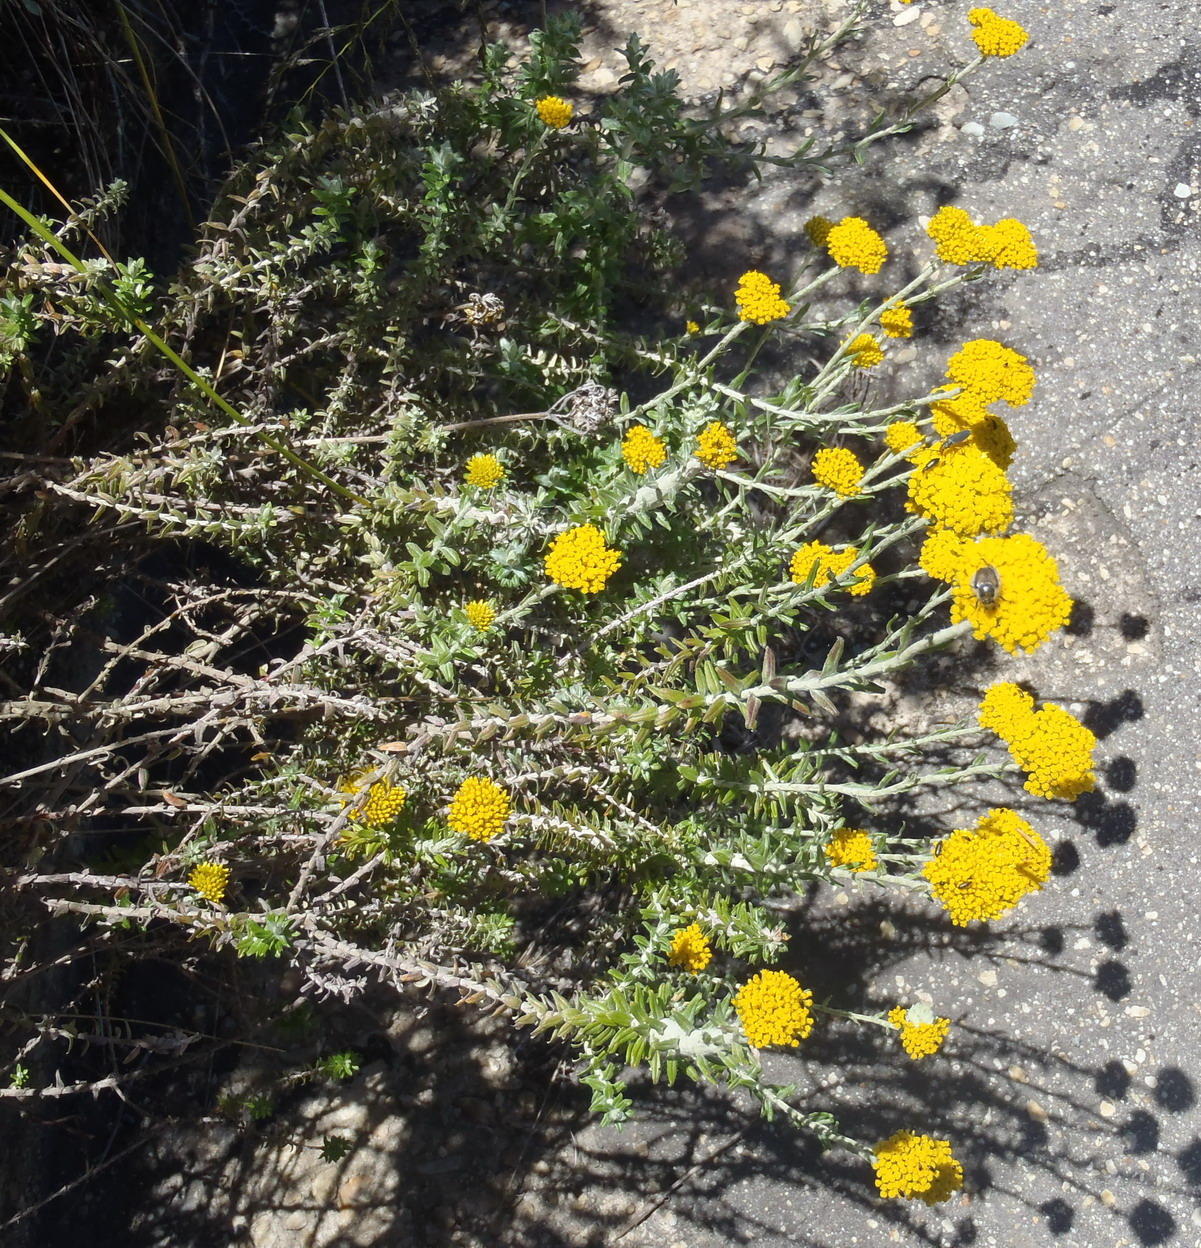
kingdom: Plantae
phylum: Tracheophyta
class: Magnoliopsida
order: Asterales
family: Asteraceae
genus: Helichrysum
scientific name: Helichrysum cymosum
